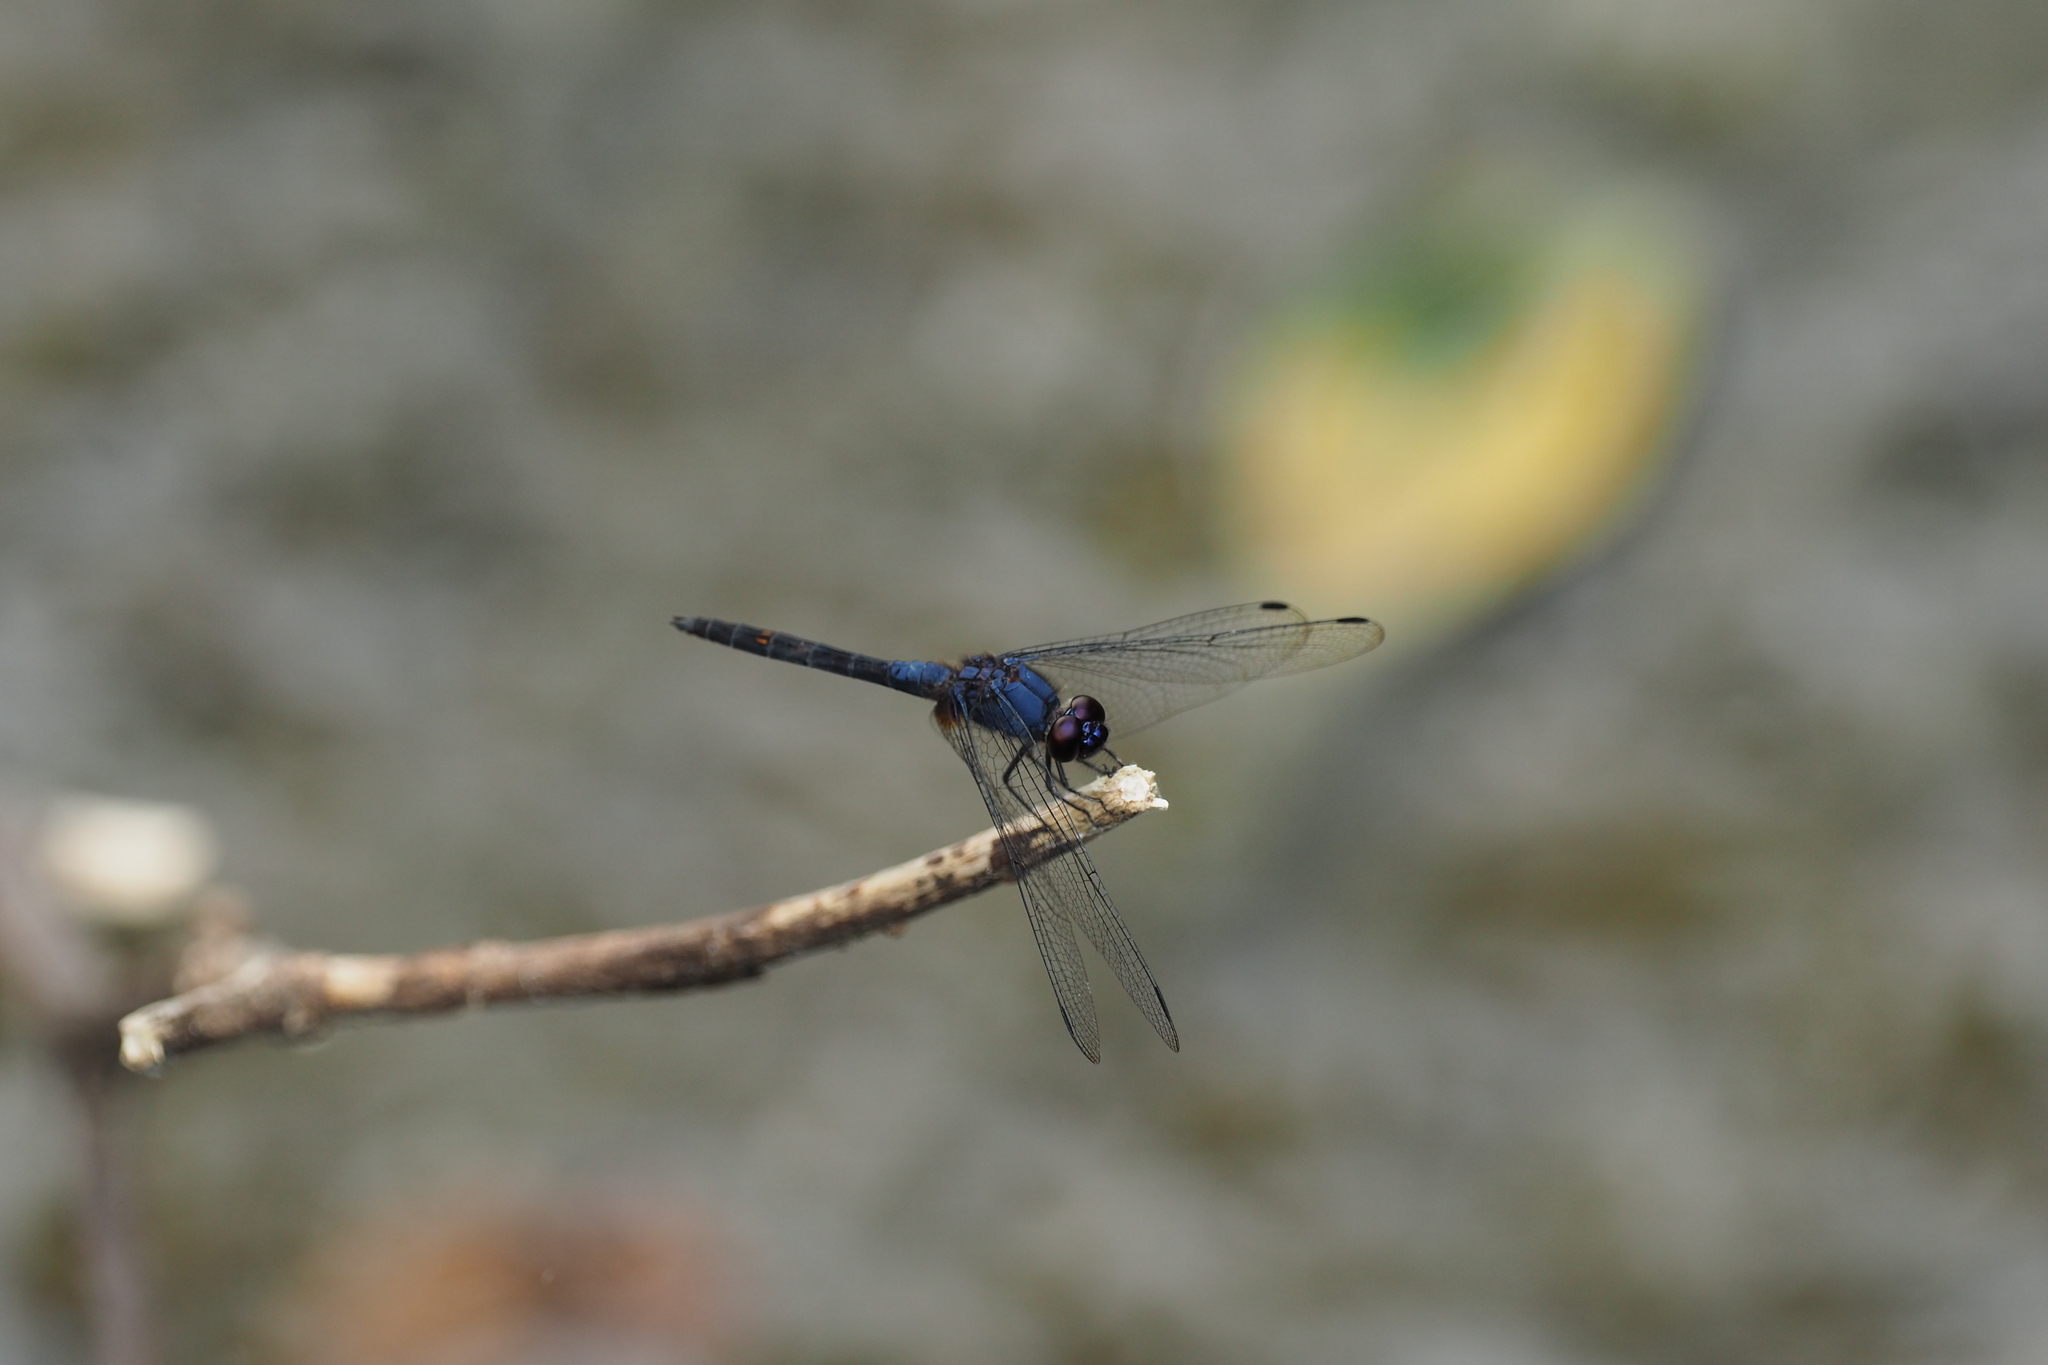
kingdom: Animalia
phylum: Arthropoda
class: Insecta
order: Odonata
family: Libellulidae
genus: Trithemis
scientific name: Trithemis festiva
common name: Indigo dropwing
